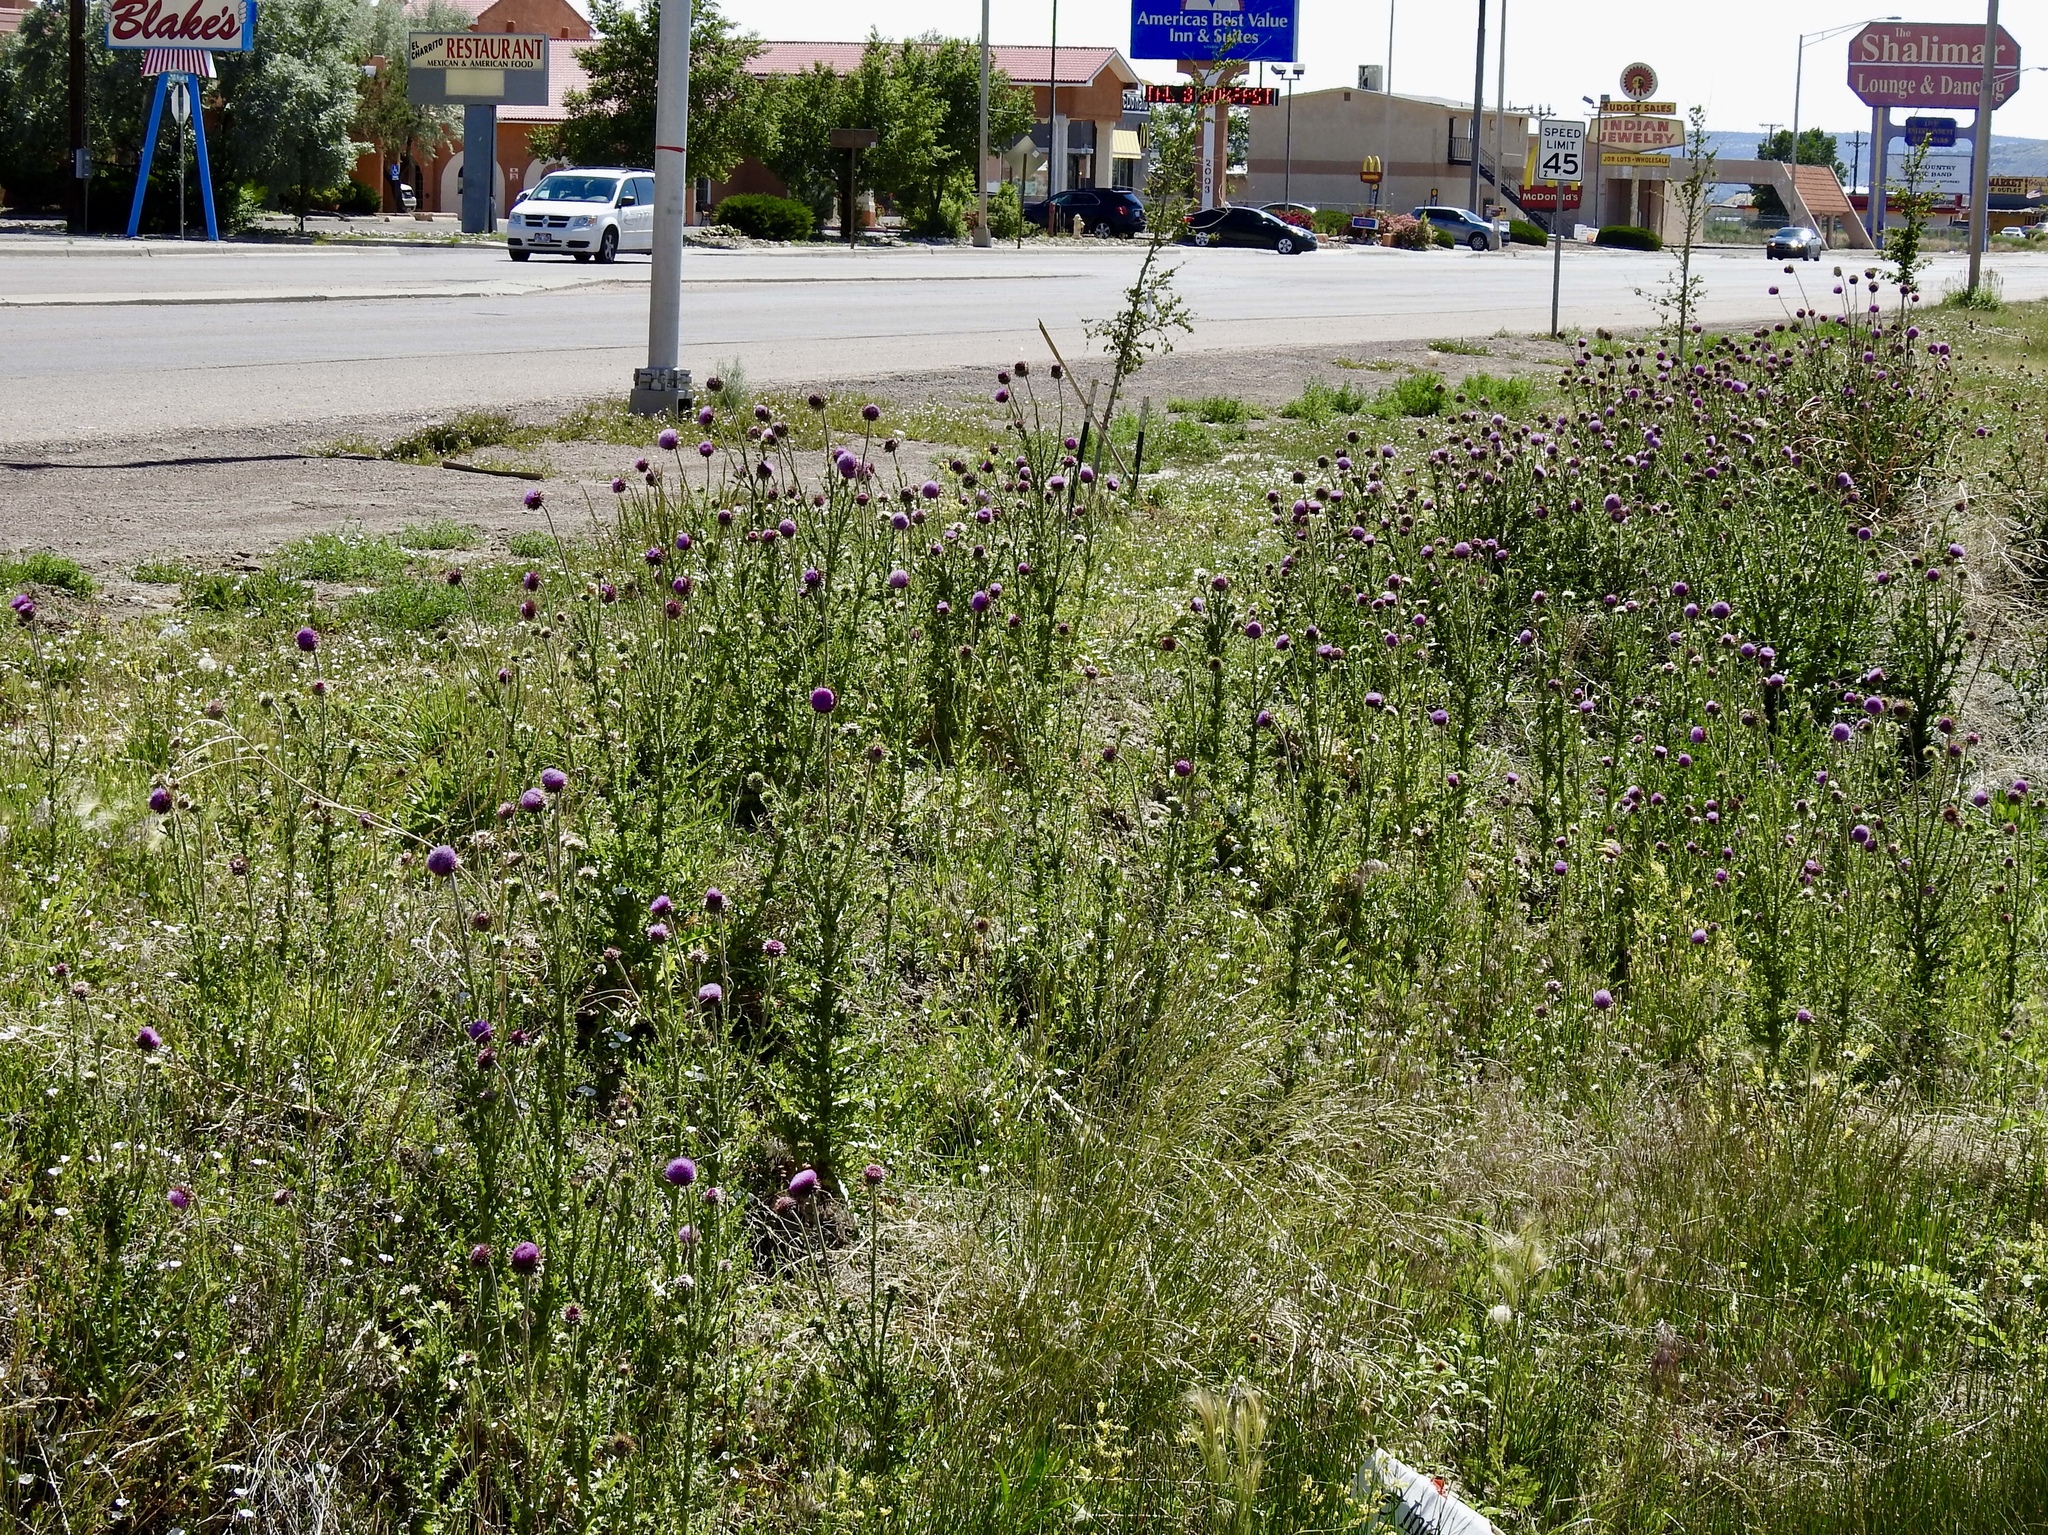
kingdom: Plantae
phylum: Tracheophyta
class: Magnoliopsida
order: Asterales
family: Asteraceae
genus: Carduus
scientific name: Carduus nutans
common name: Musk thistle
